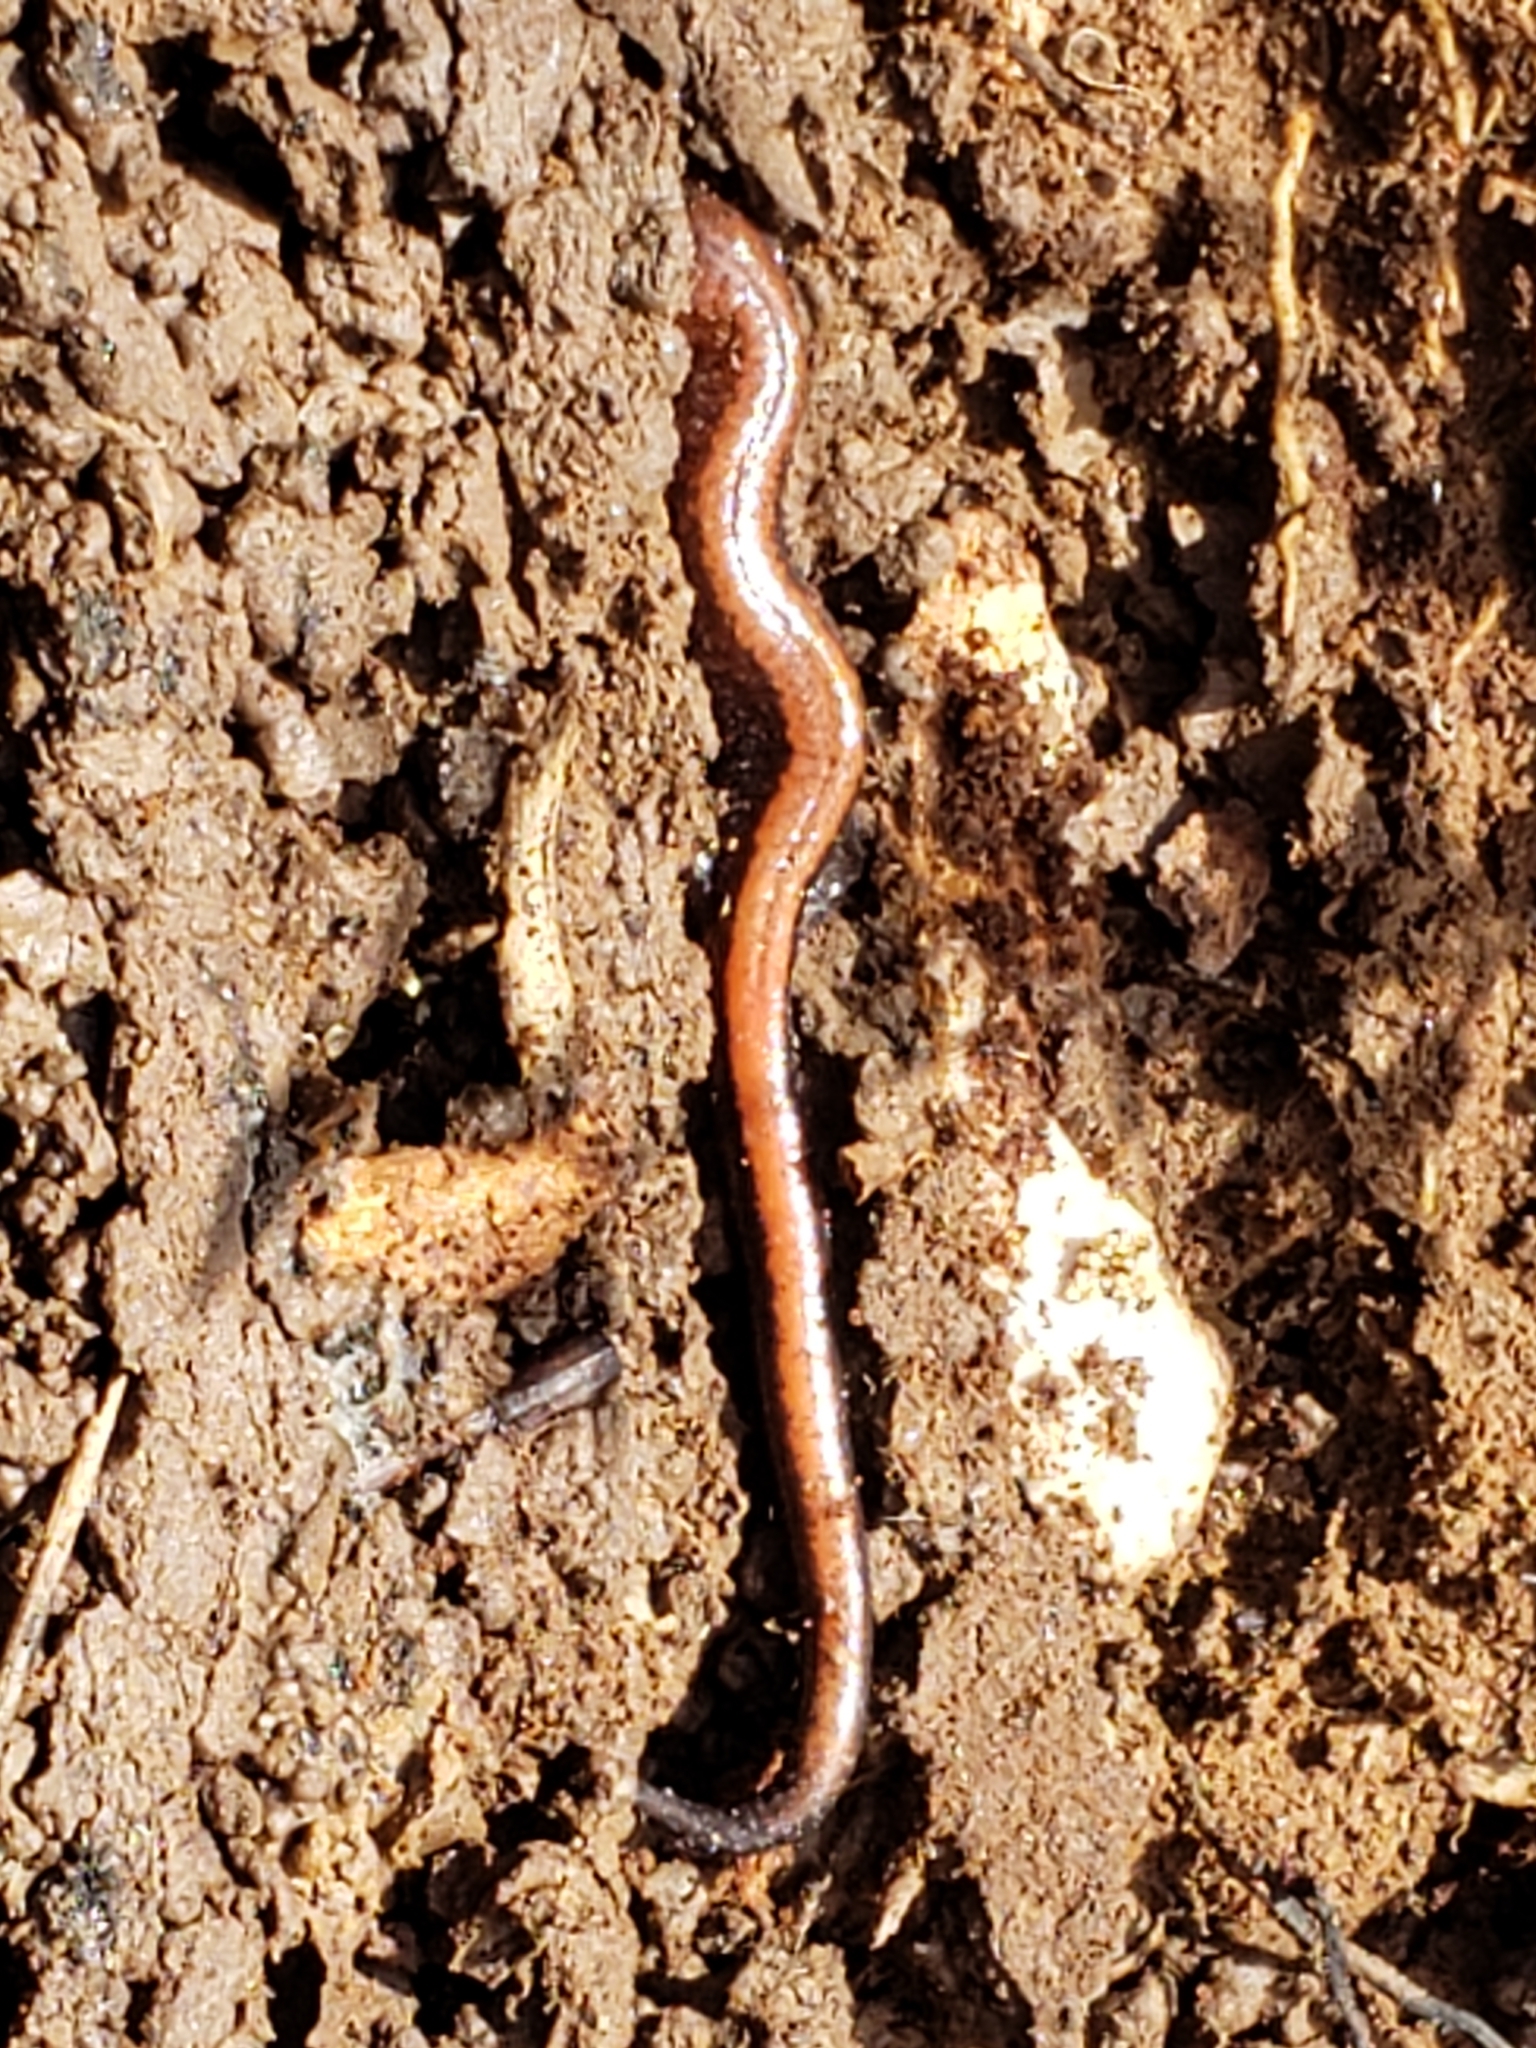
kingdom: Animalia
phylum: Chordata
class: Amphibia
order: Caudata
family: Plethodontidae
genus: Plethodon
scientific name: Plethodon cinereus
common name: Redback salamander
